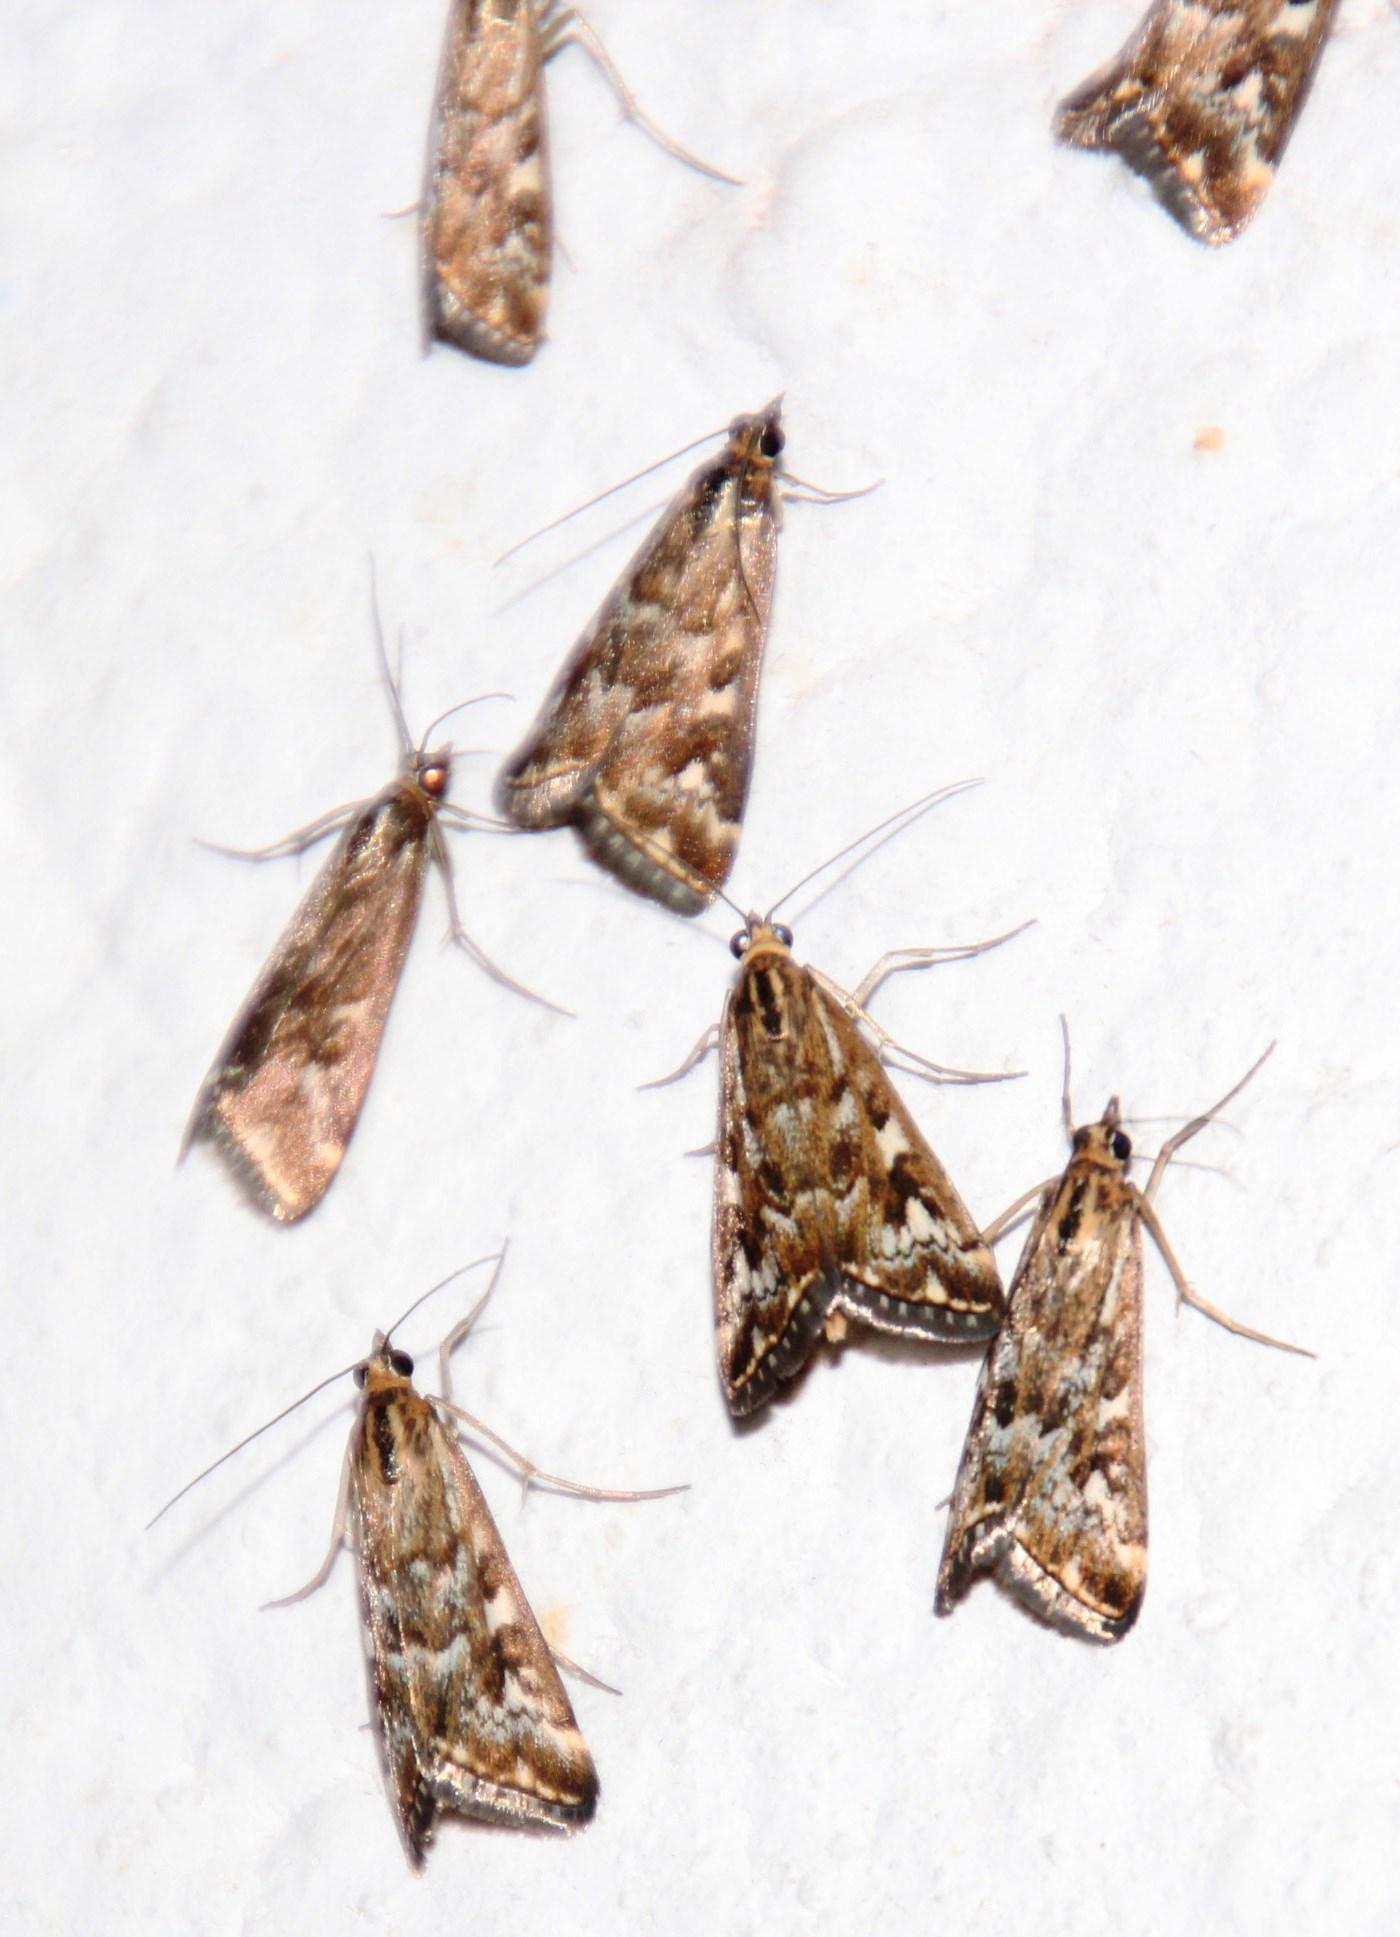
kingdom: Animalia
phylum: Arthropoda
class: Insecta
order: Lepidoptera
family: Crambidae
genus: Loxostege
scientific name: Loxostege frustalis
